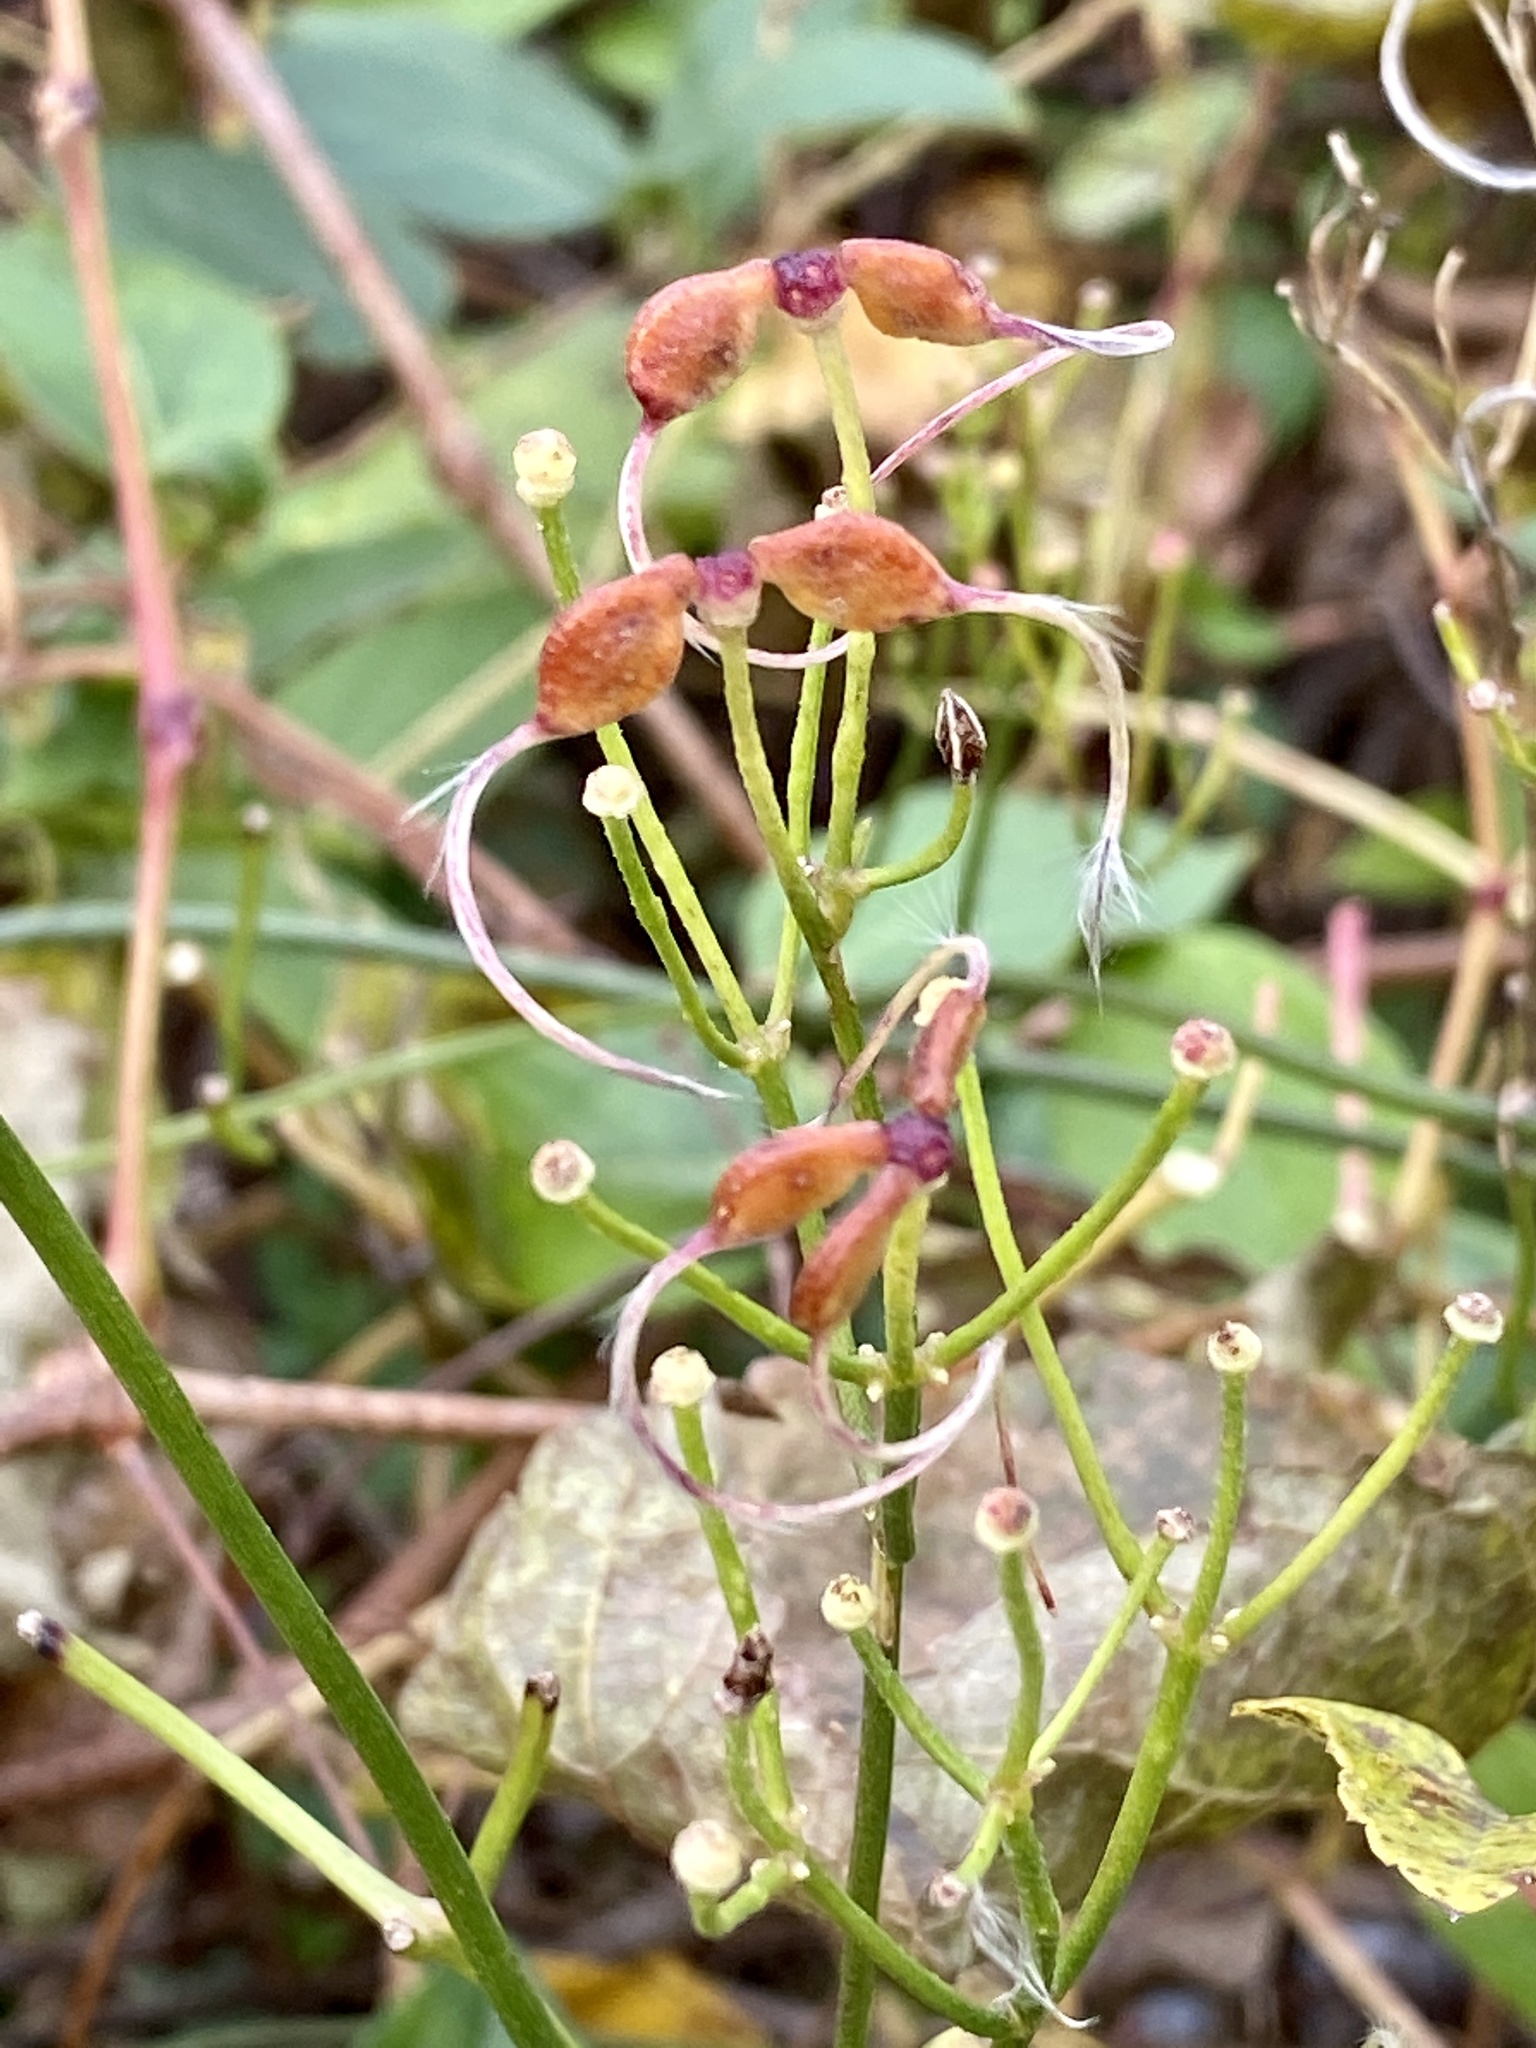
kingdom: Plantae
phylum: Tracheophyta
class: Magnoliopsida
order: Ranunculales
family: Ranunculaceae
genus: Clematis
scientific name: Clematis terniflora
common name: Sweet autumn clematis
